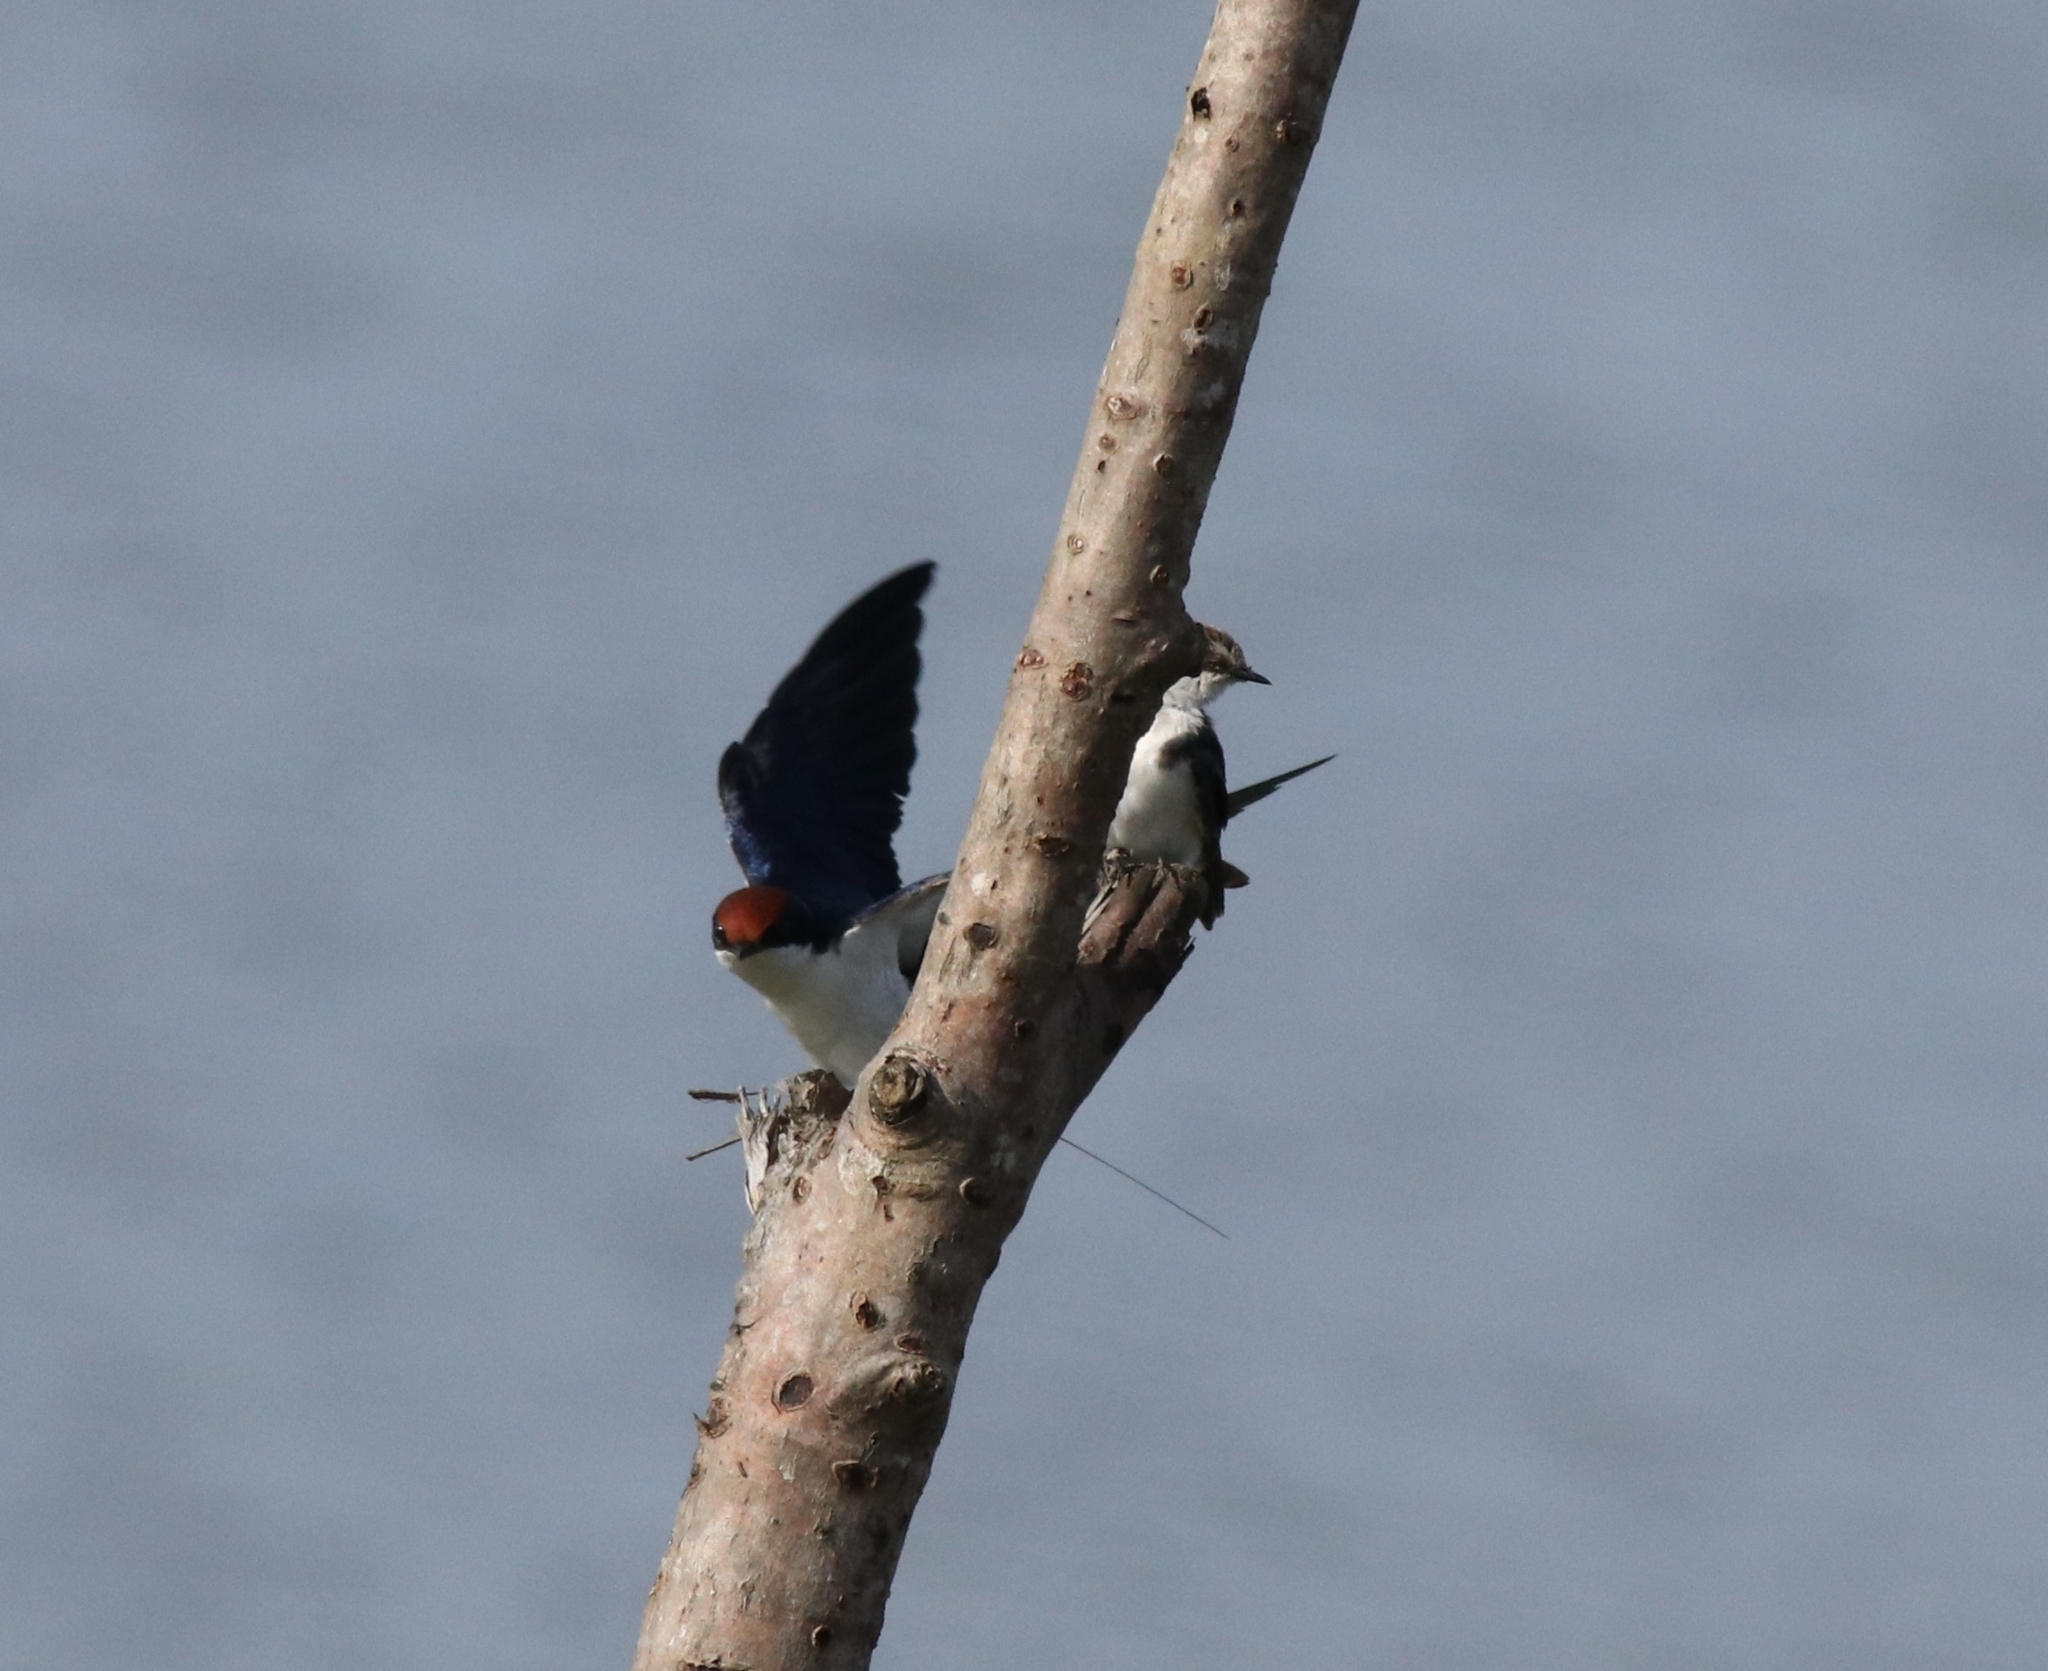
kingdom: Animalia
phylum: Chordata
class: Aves
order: Passeriformes
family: Hirundinidae
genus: Hirundo
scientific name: Hirundo smithii
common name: Wire-tailed swallow
